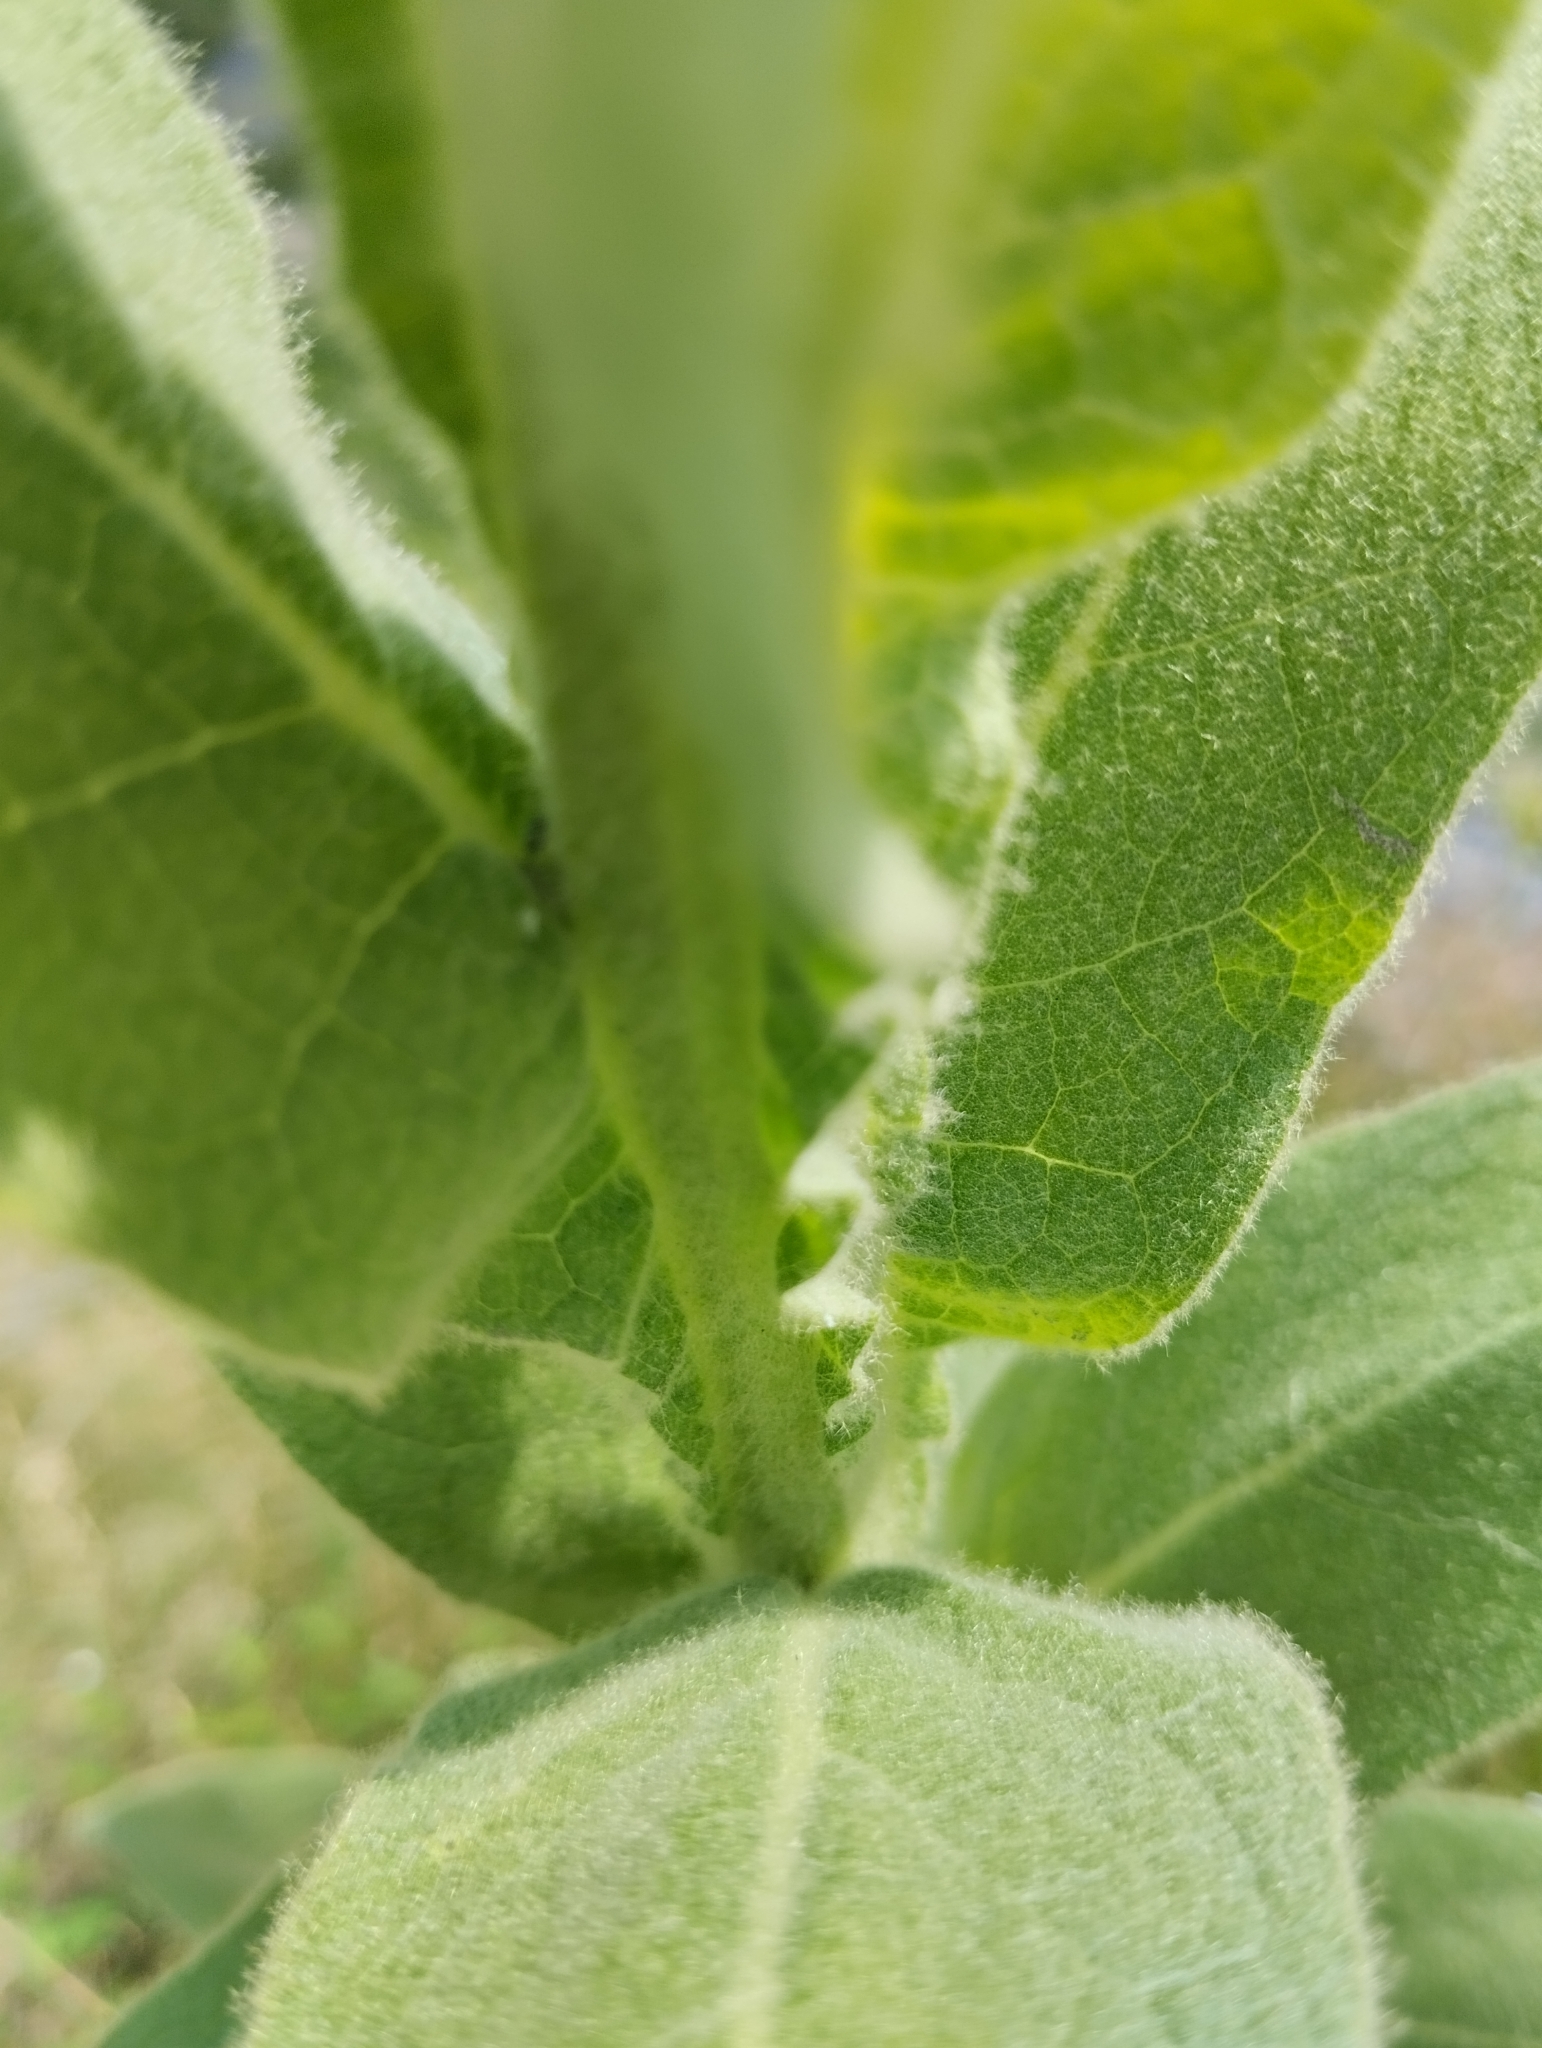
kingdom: Plantae
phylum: Tracheophyta
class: Magnoliopsida
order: Lamiales
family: Scrophulariaceae
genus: Verbascum
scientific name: Verbascum thapsus
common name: Common mullein
